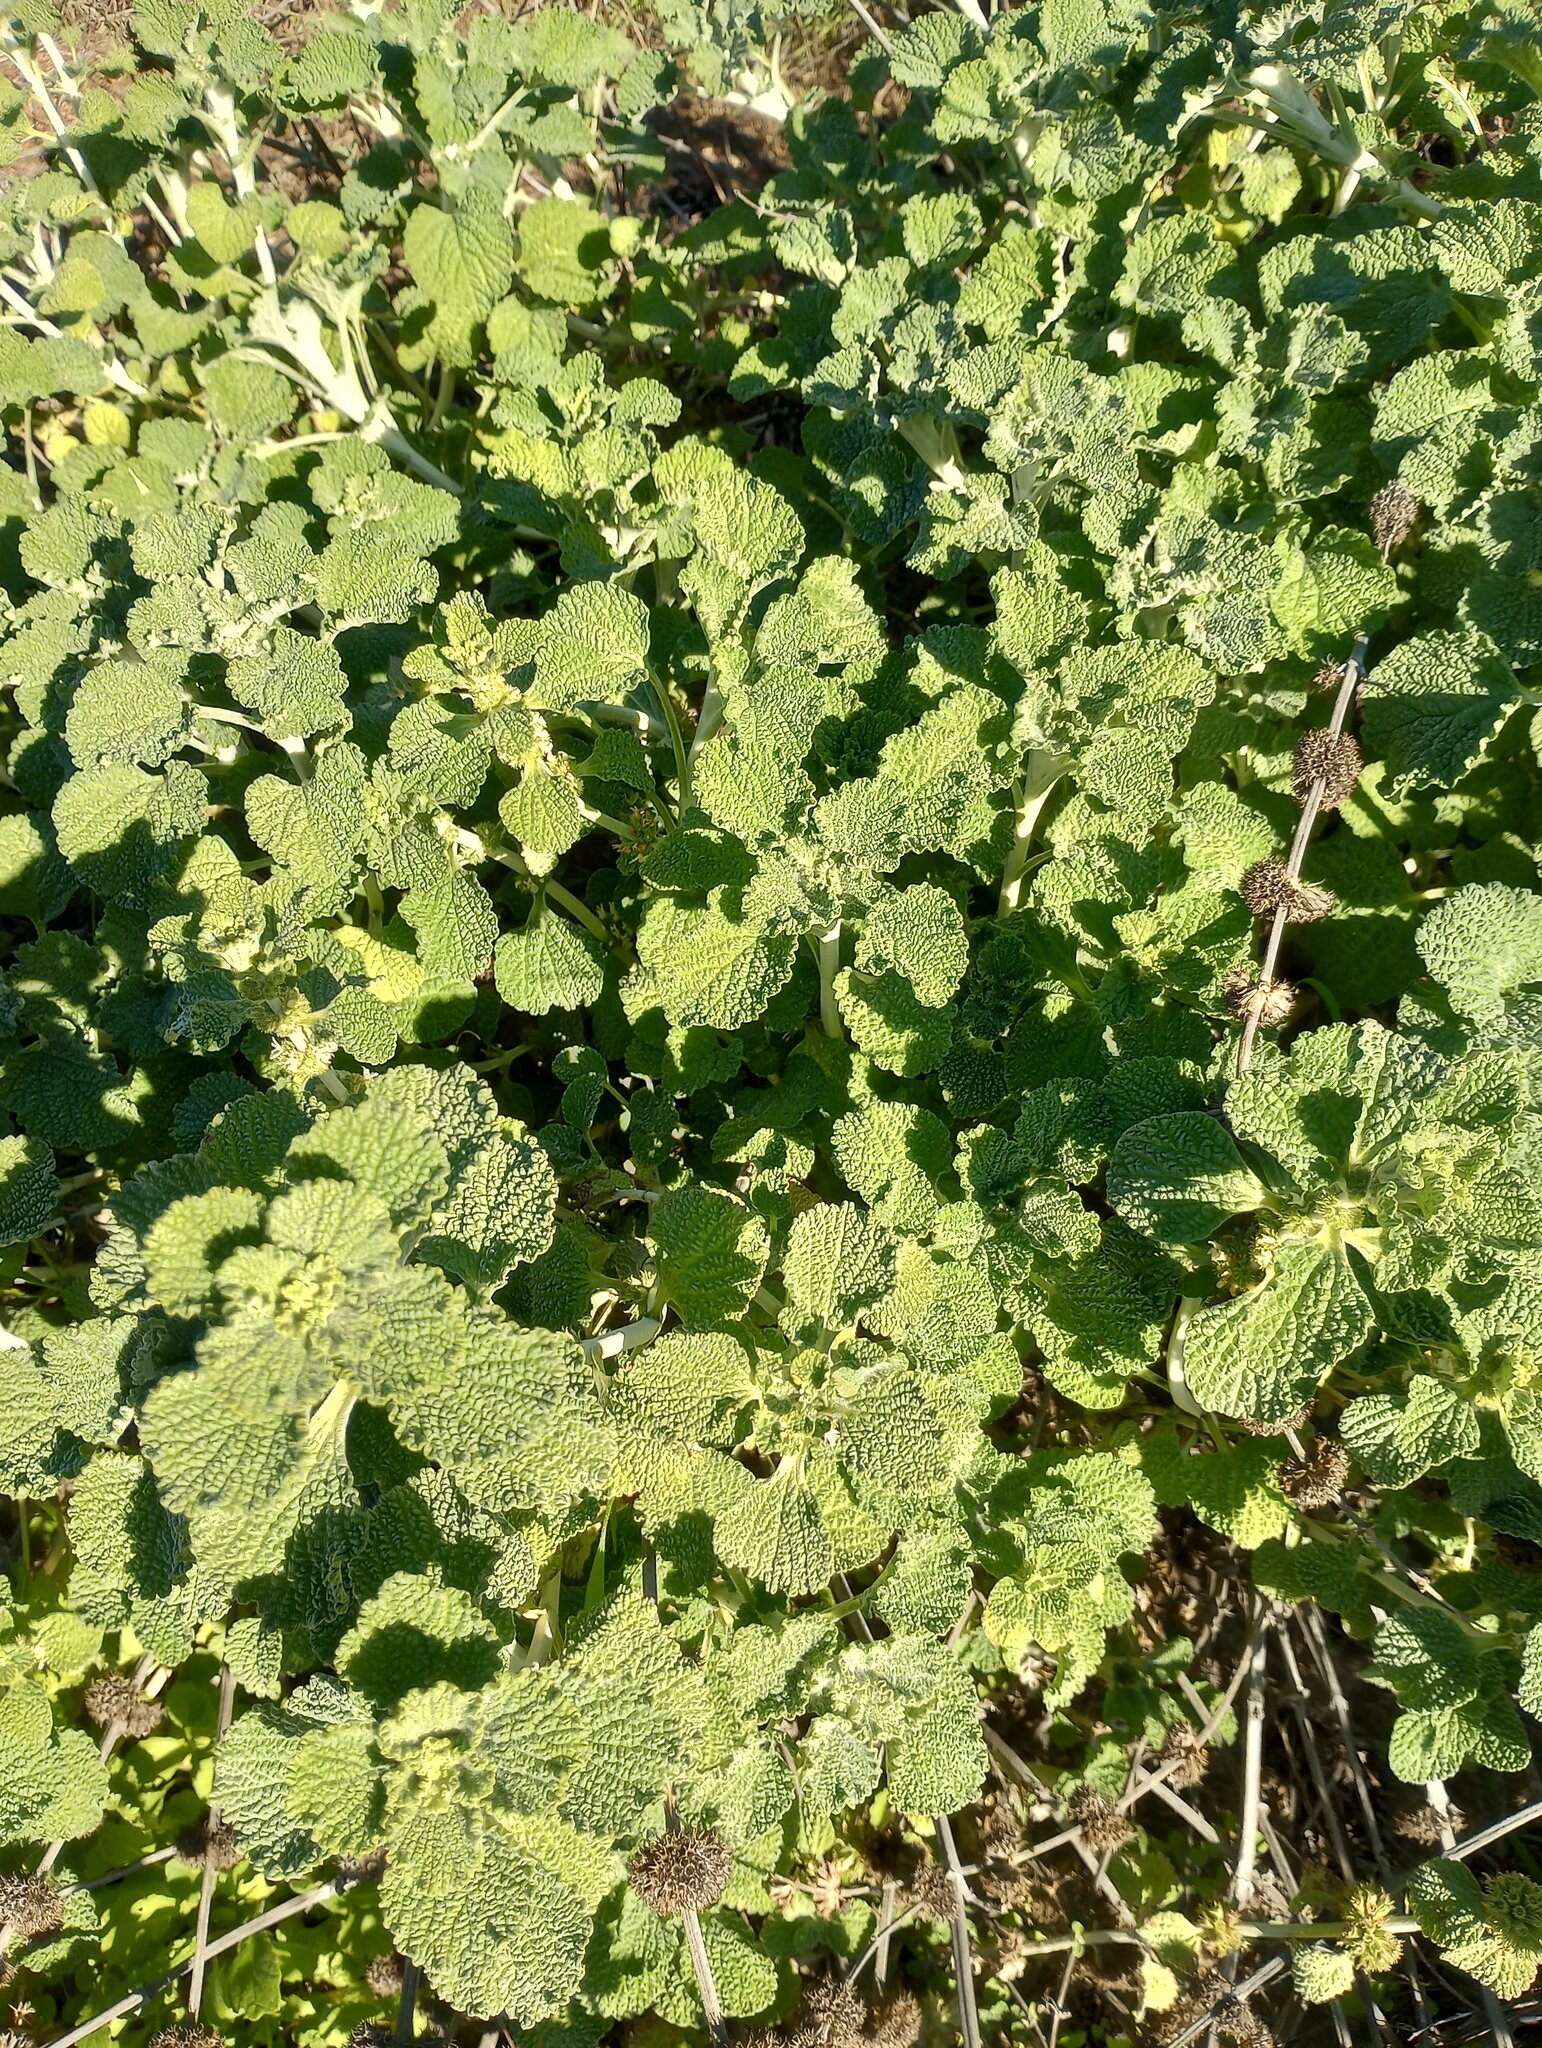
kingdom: Plantae
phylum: Tracheophyta
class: Magnoliopsida
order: Lamiales
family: Lamiaceae
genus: Marrubium
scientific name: Marrubium vulgare
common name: Horehound
